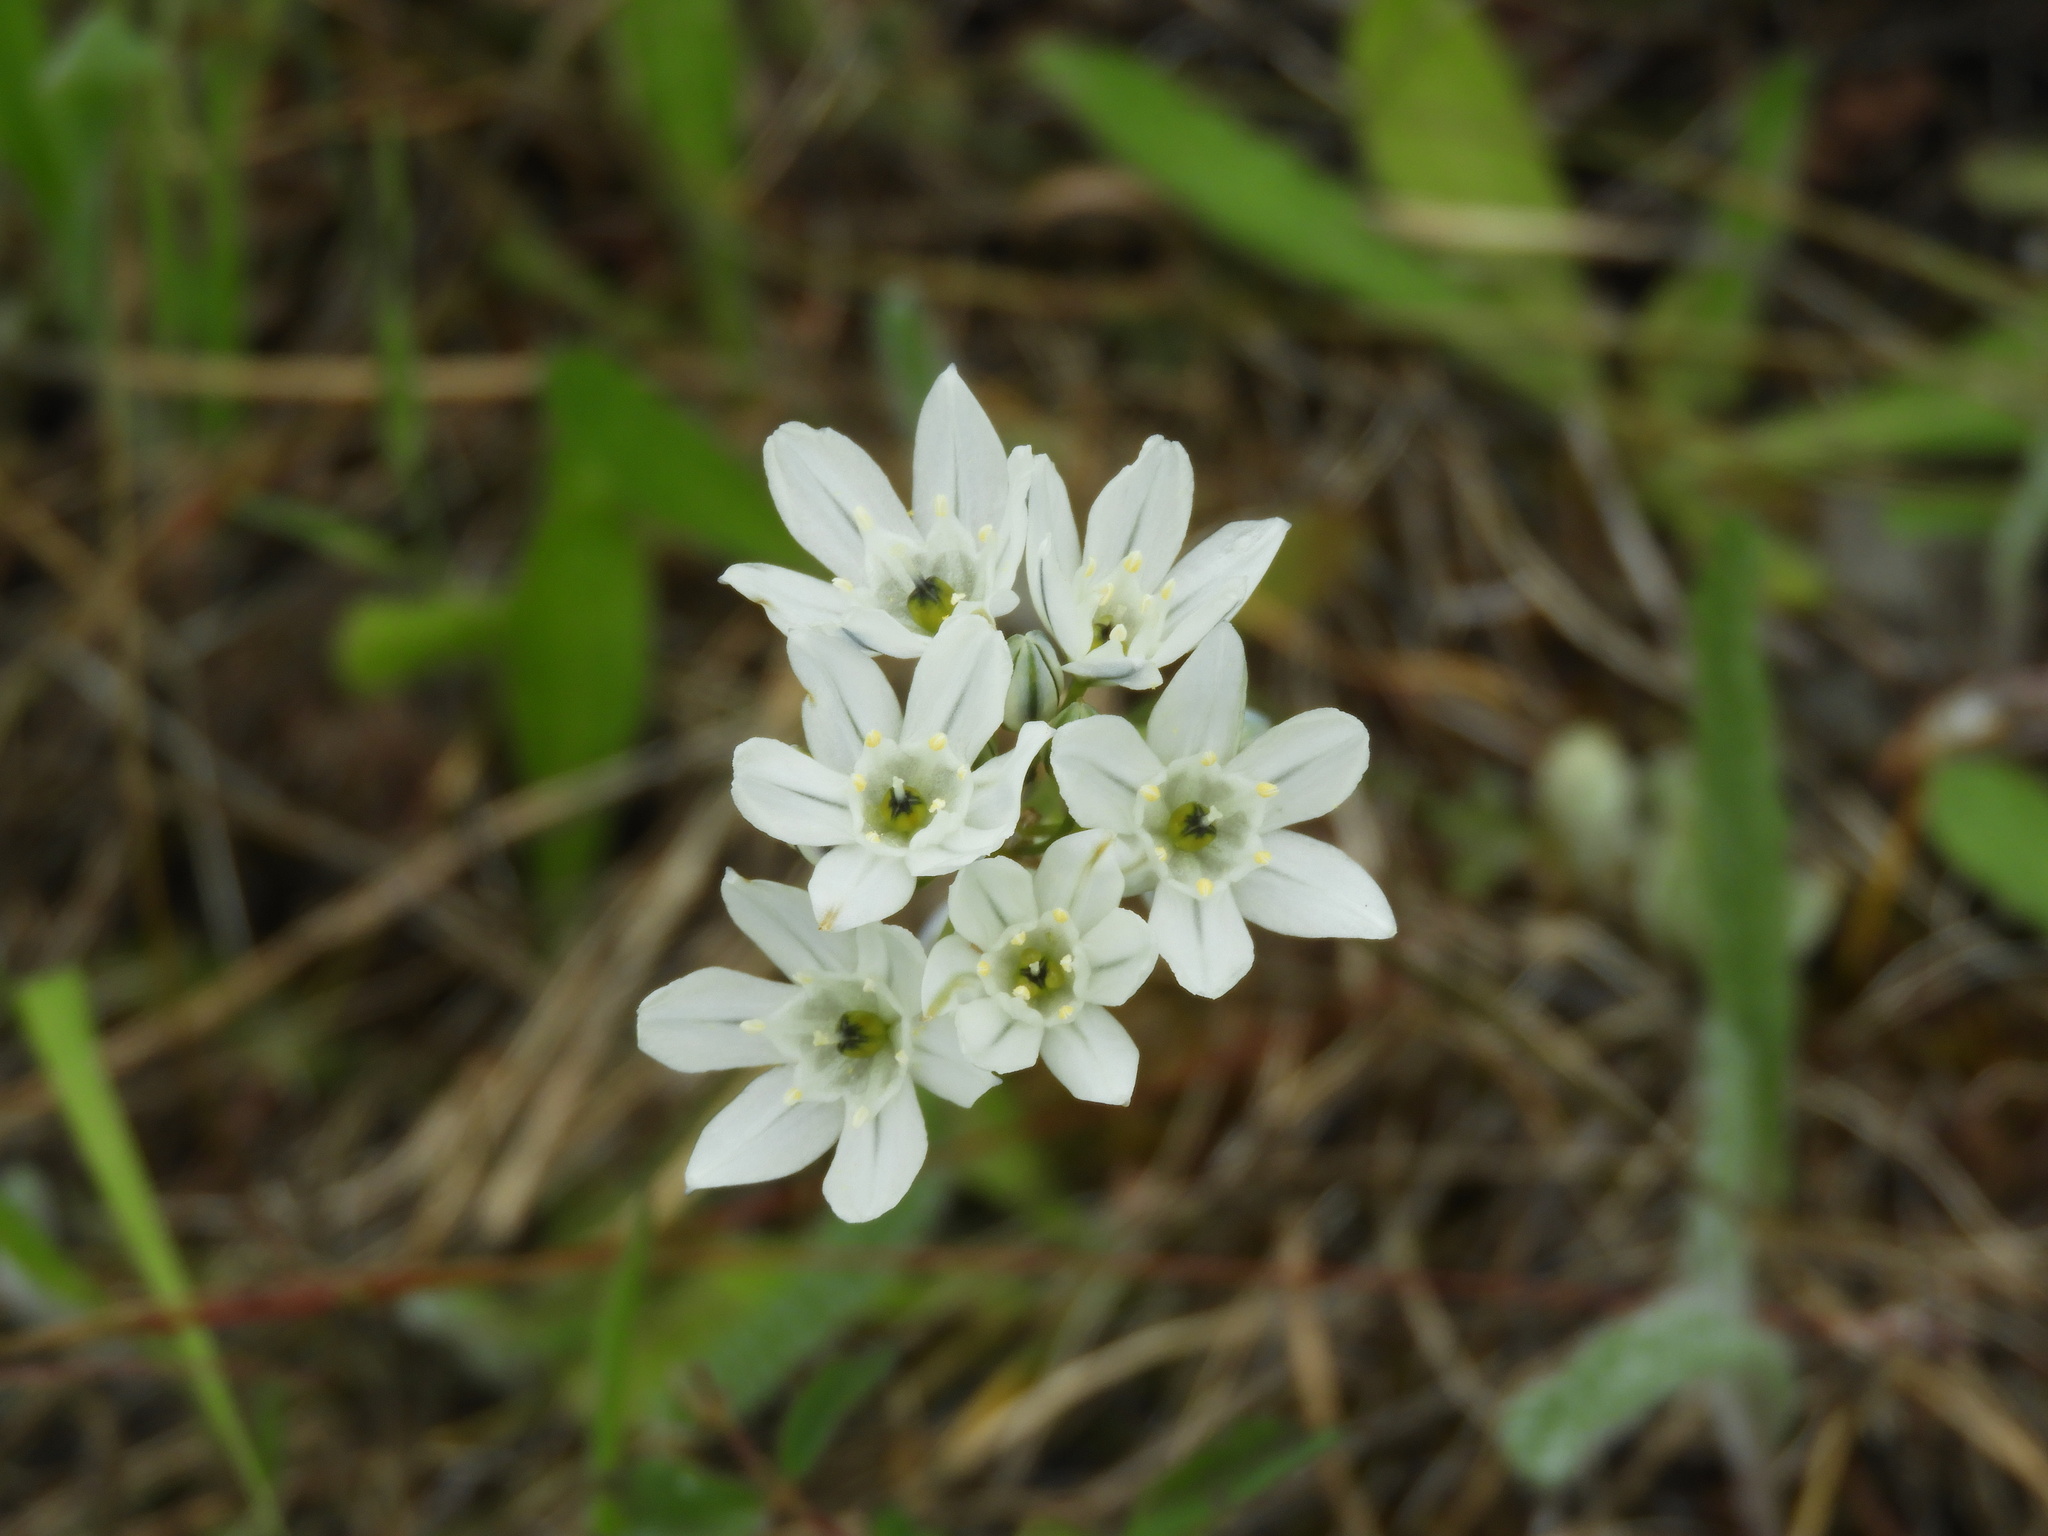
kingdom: Plantae
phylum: Tracheophyta
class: Liliopsida
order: Asparagales
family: Asparagaceae
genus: Triteleia
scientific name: Triteleia hyacinthina
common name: White brodiaea
